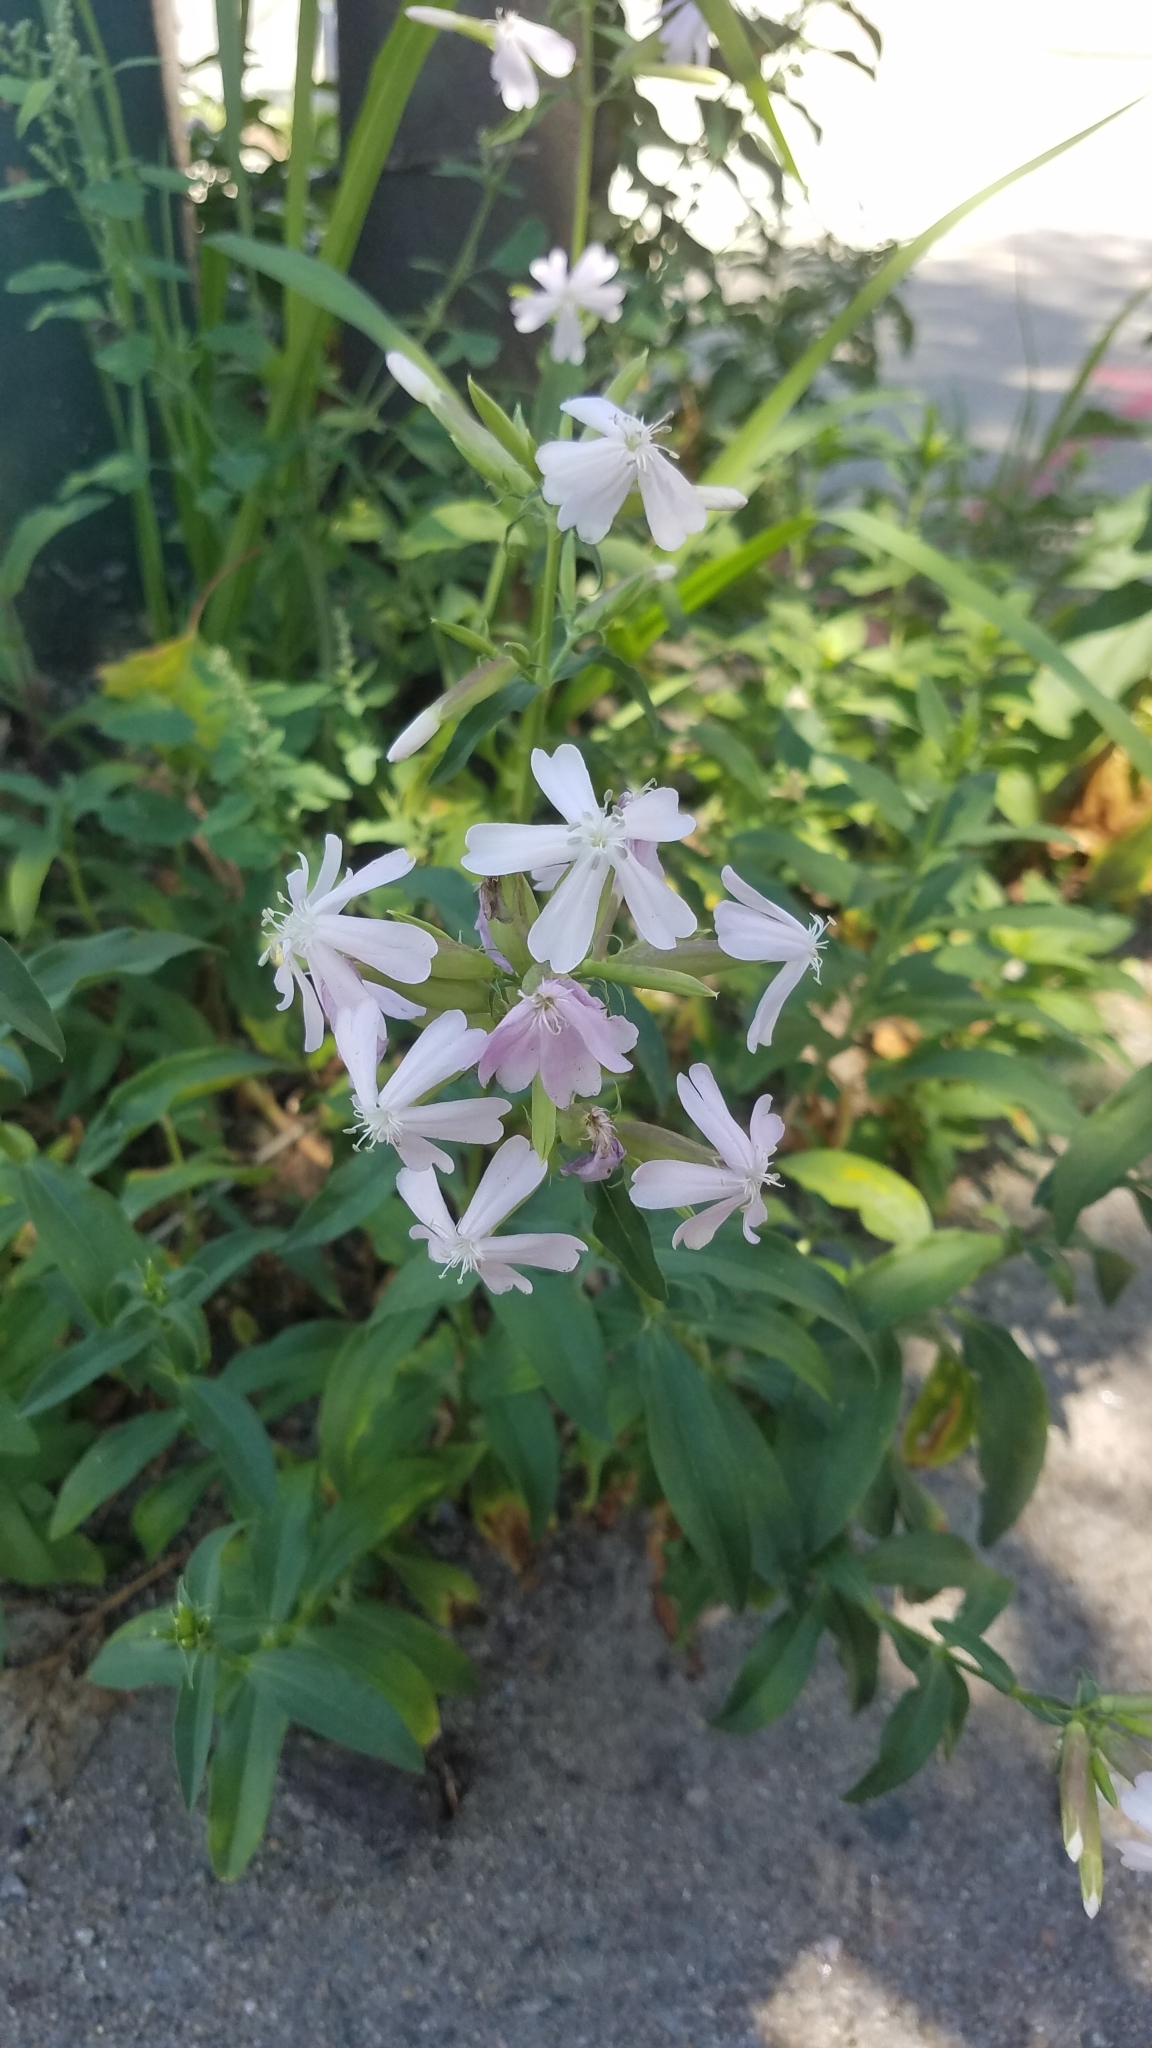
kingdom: Plantae
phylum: Tracheophyta
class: Magnoliopsida
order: Caryophyllales
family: Caryophyllaceae
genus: Saponaria
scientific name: Saponaria officinalis
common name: Soapwort
